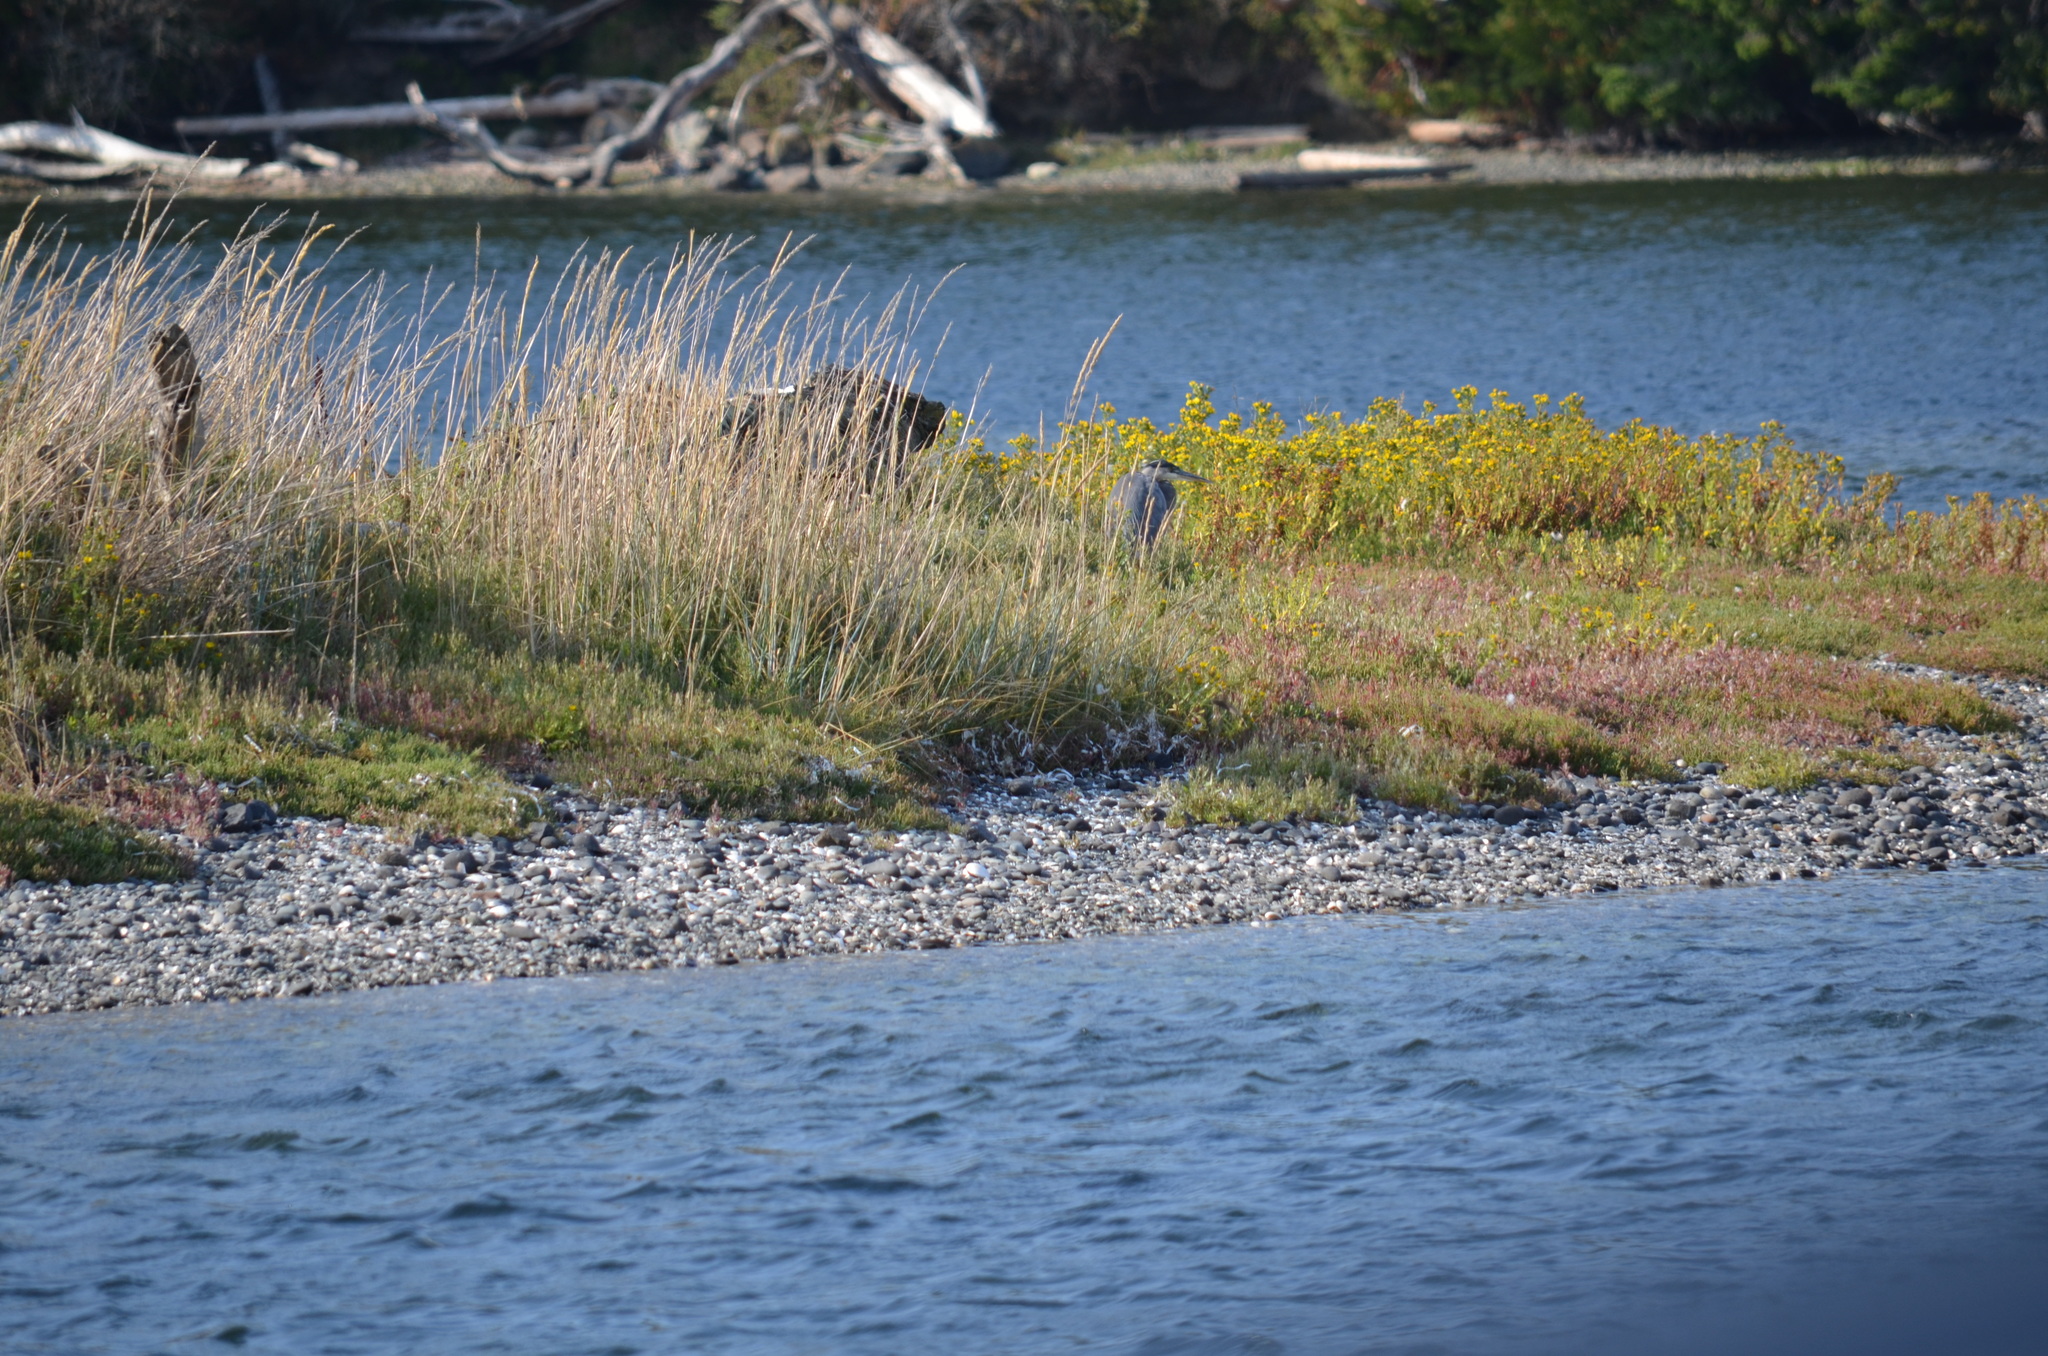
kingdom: Animalia
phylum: Chordata
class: Aves
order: Pelecaniformes
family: Ardeidae
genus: Ardea
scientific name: Ardea herodias
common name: Great blue heron
